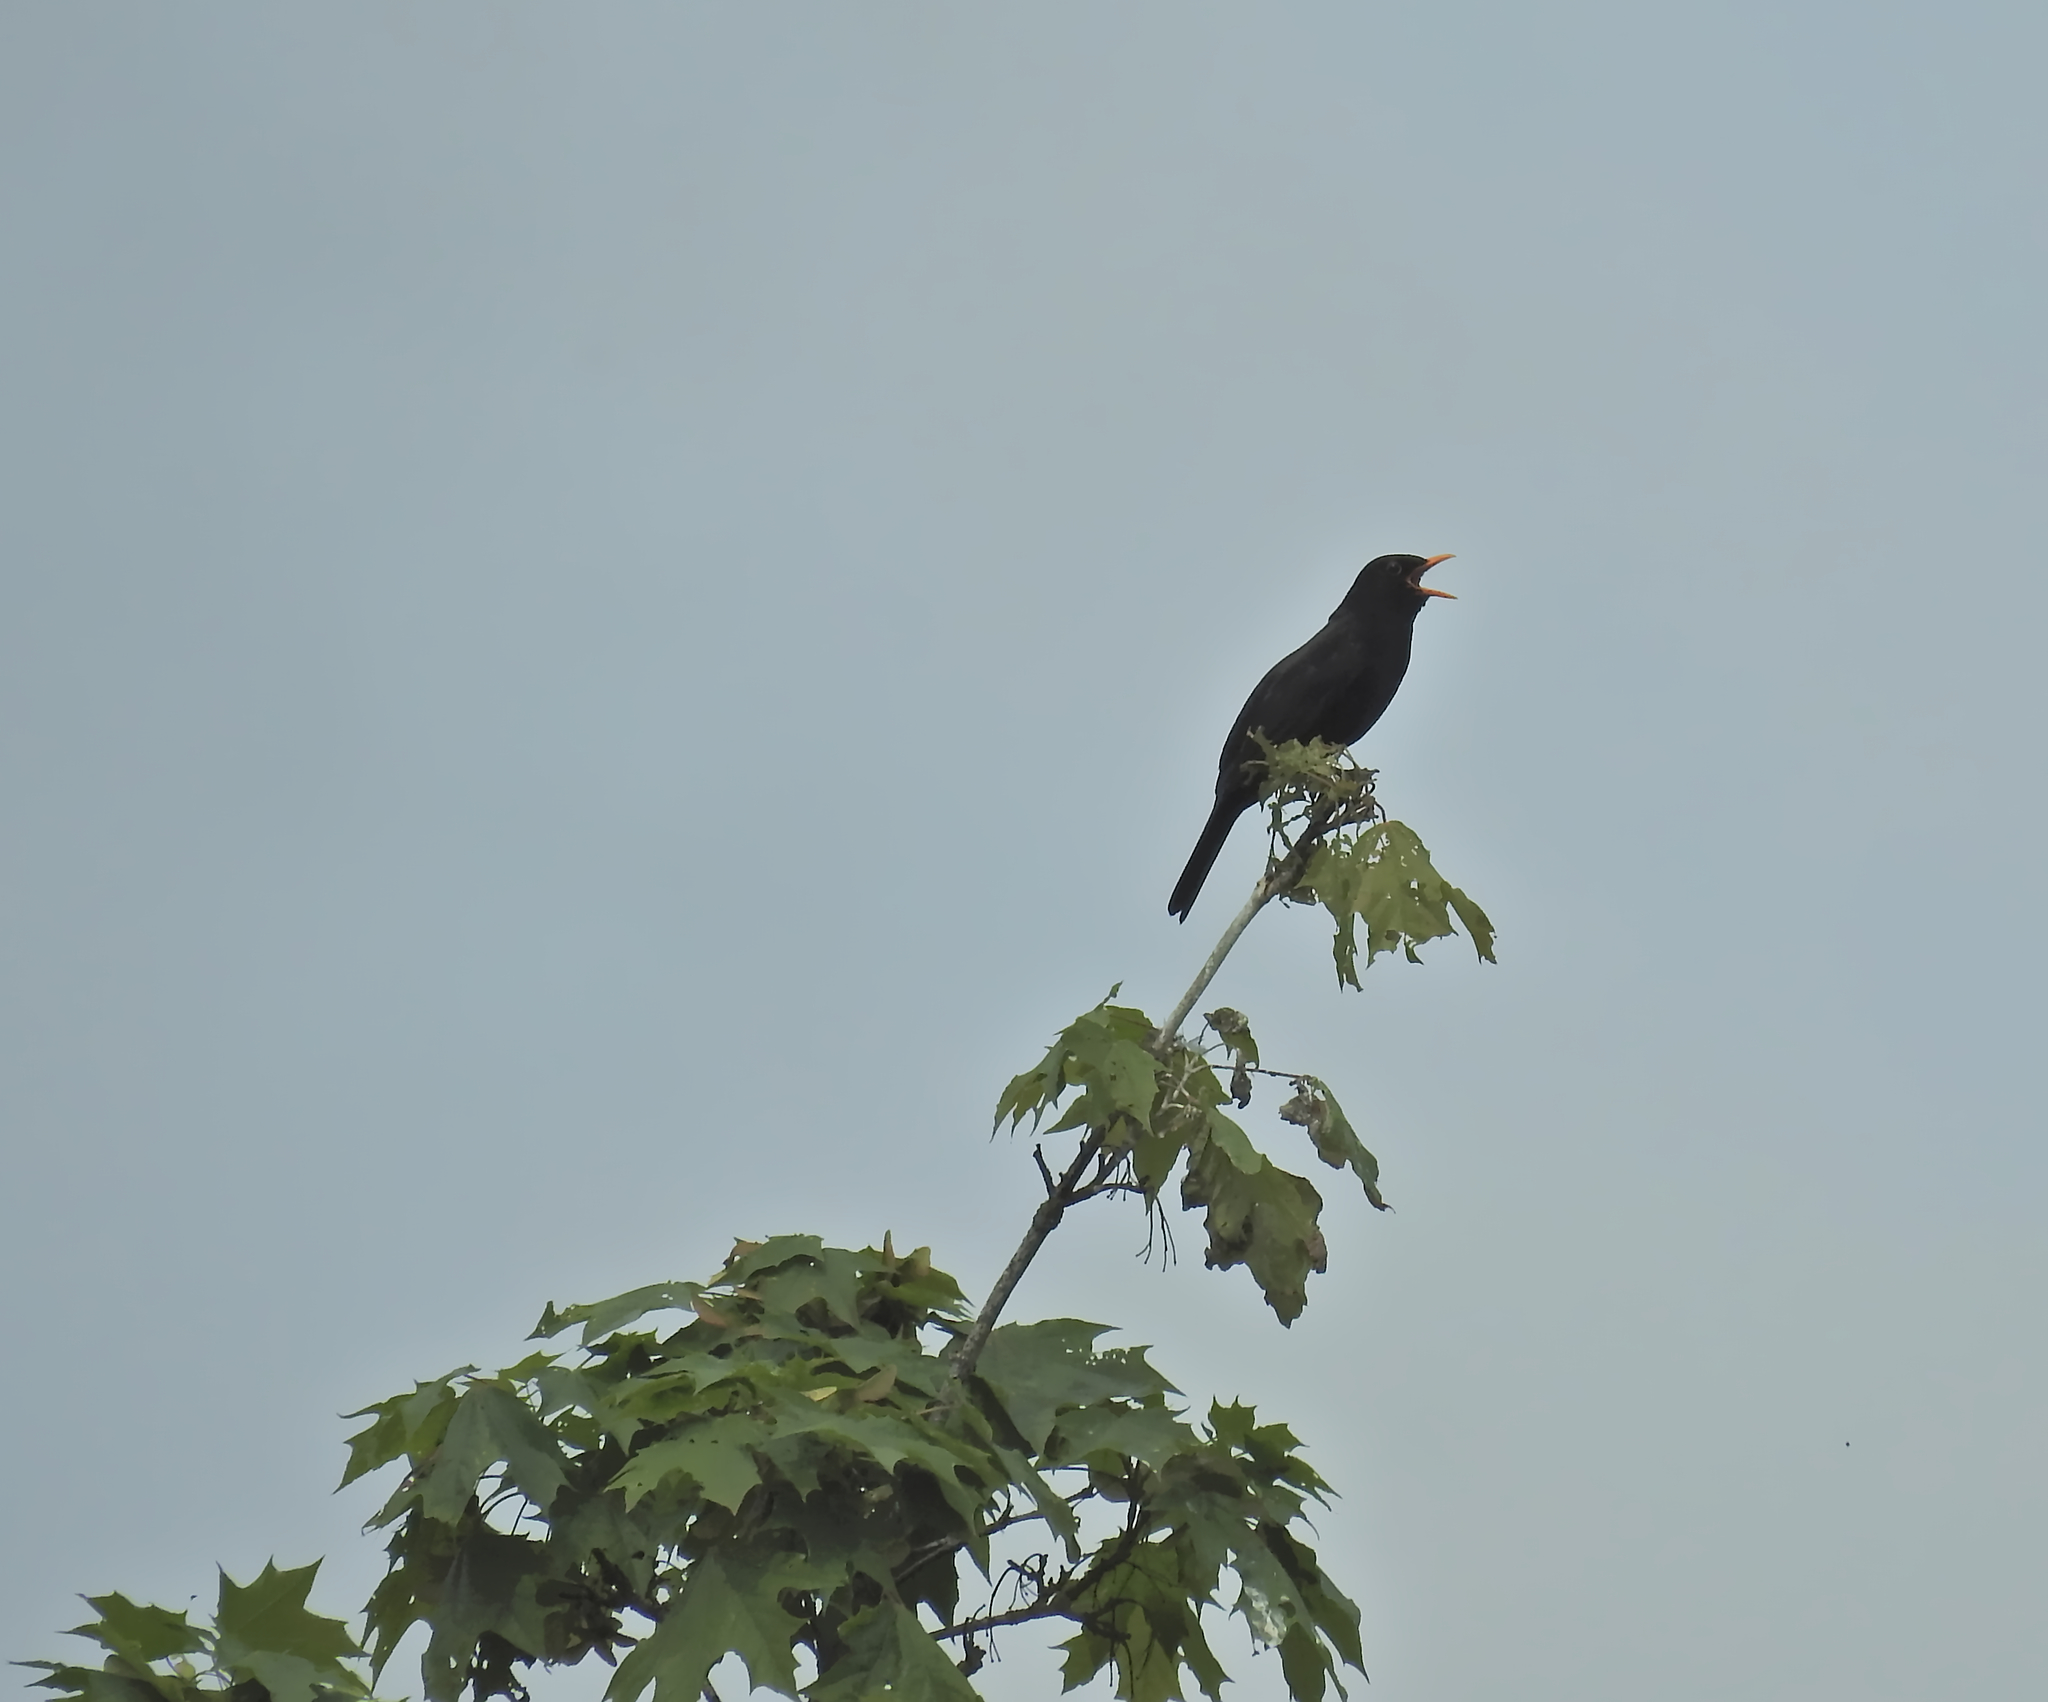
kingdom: Animalia
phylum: Chordata
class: Aves
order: Passeriformes
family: Turdidae
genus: Turdus
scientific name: Turdus merula
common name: Common blackbird
